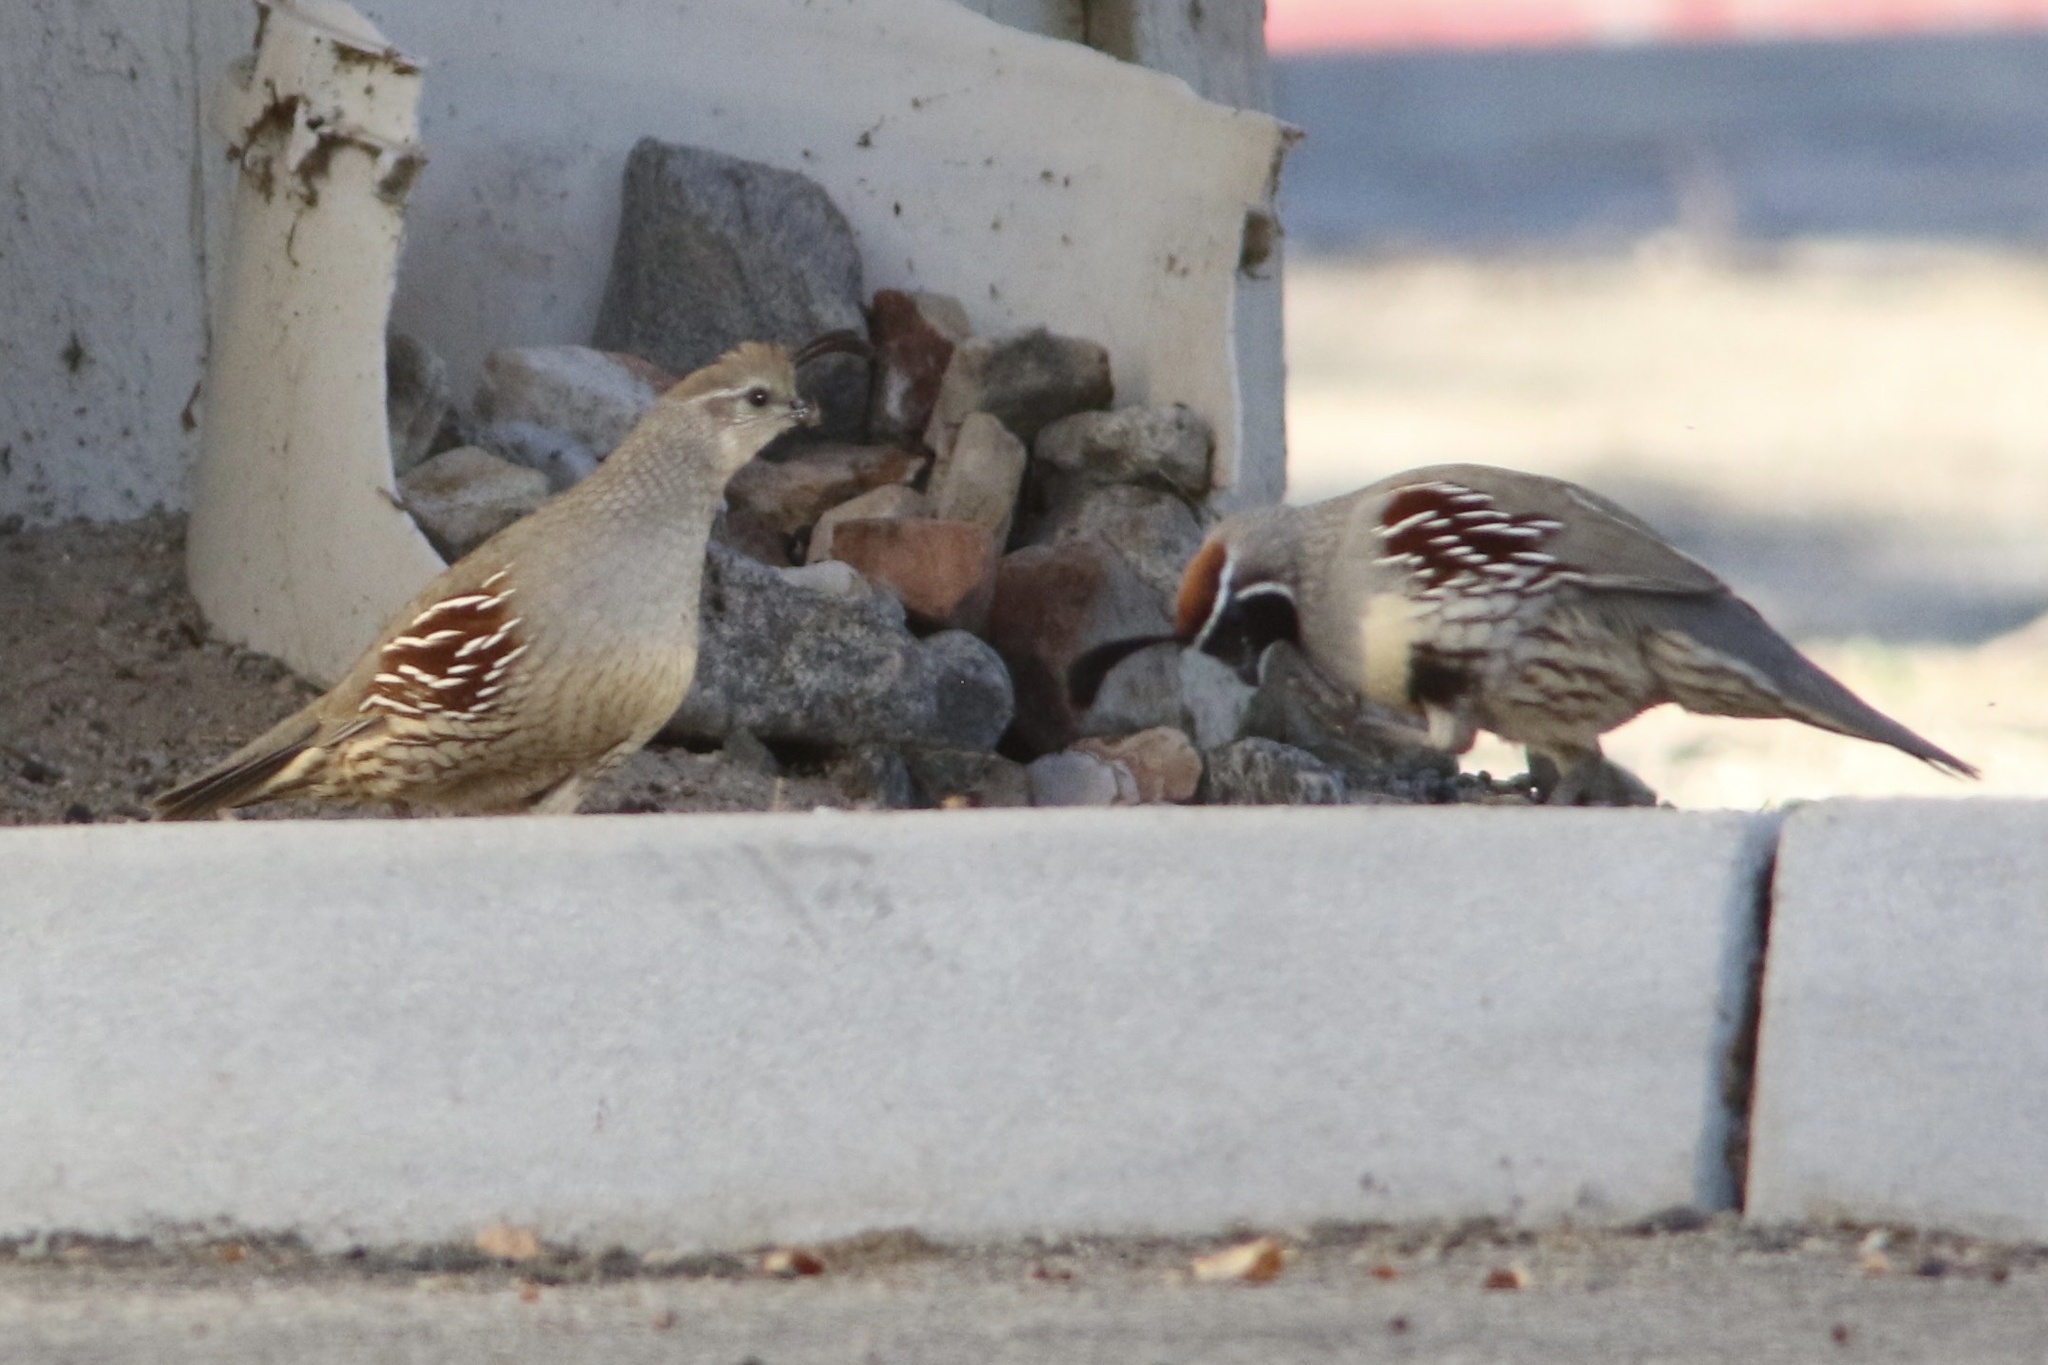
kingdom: Animalia
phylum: Chordata
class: Aves
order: Galliformes
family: Odontophoridae
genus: Callipepla
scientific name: Callipepla gambelii
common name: Gambel's quail
